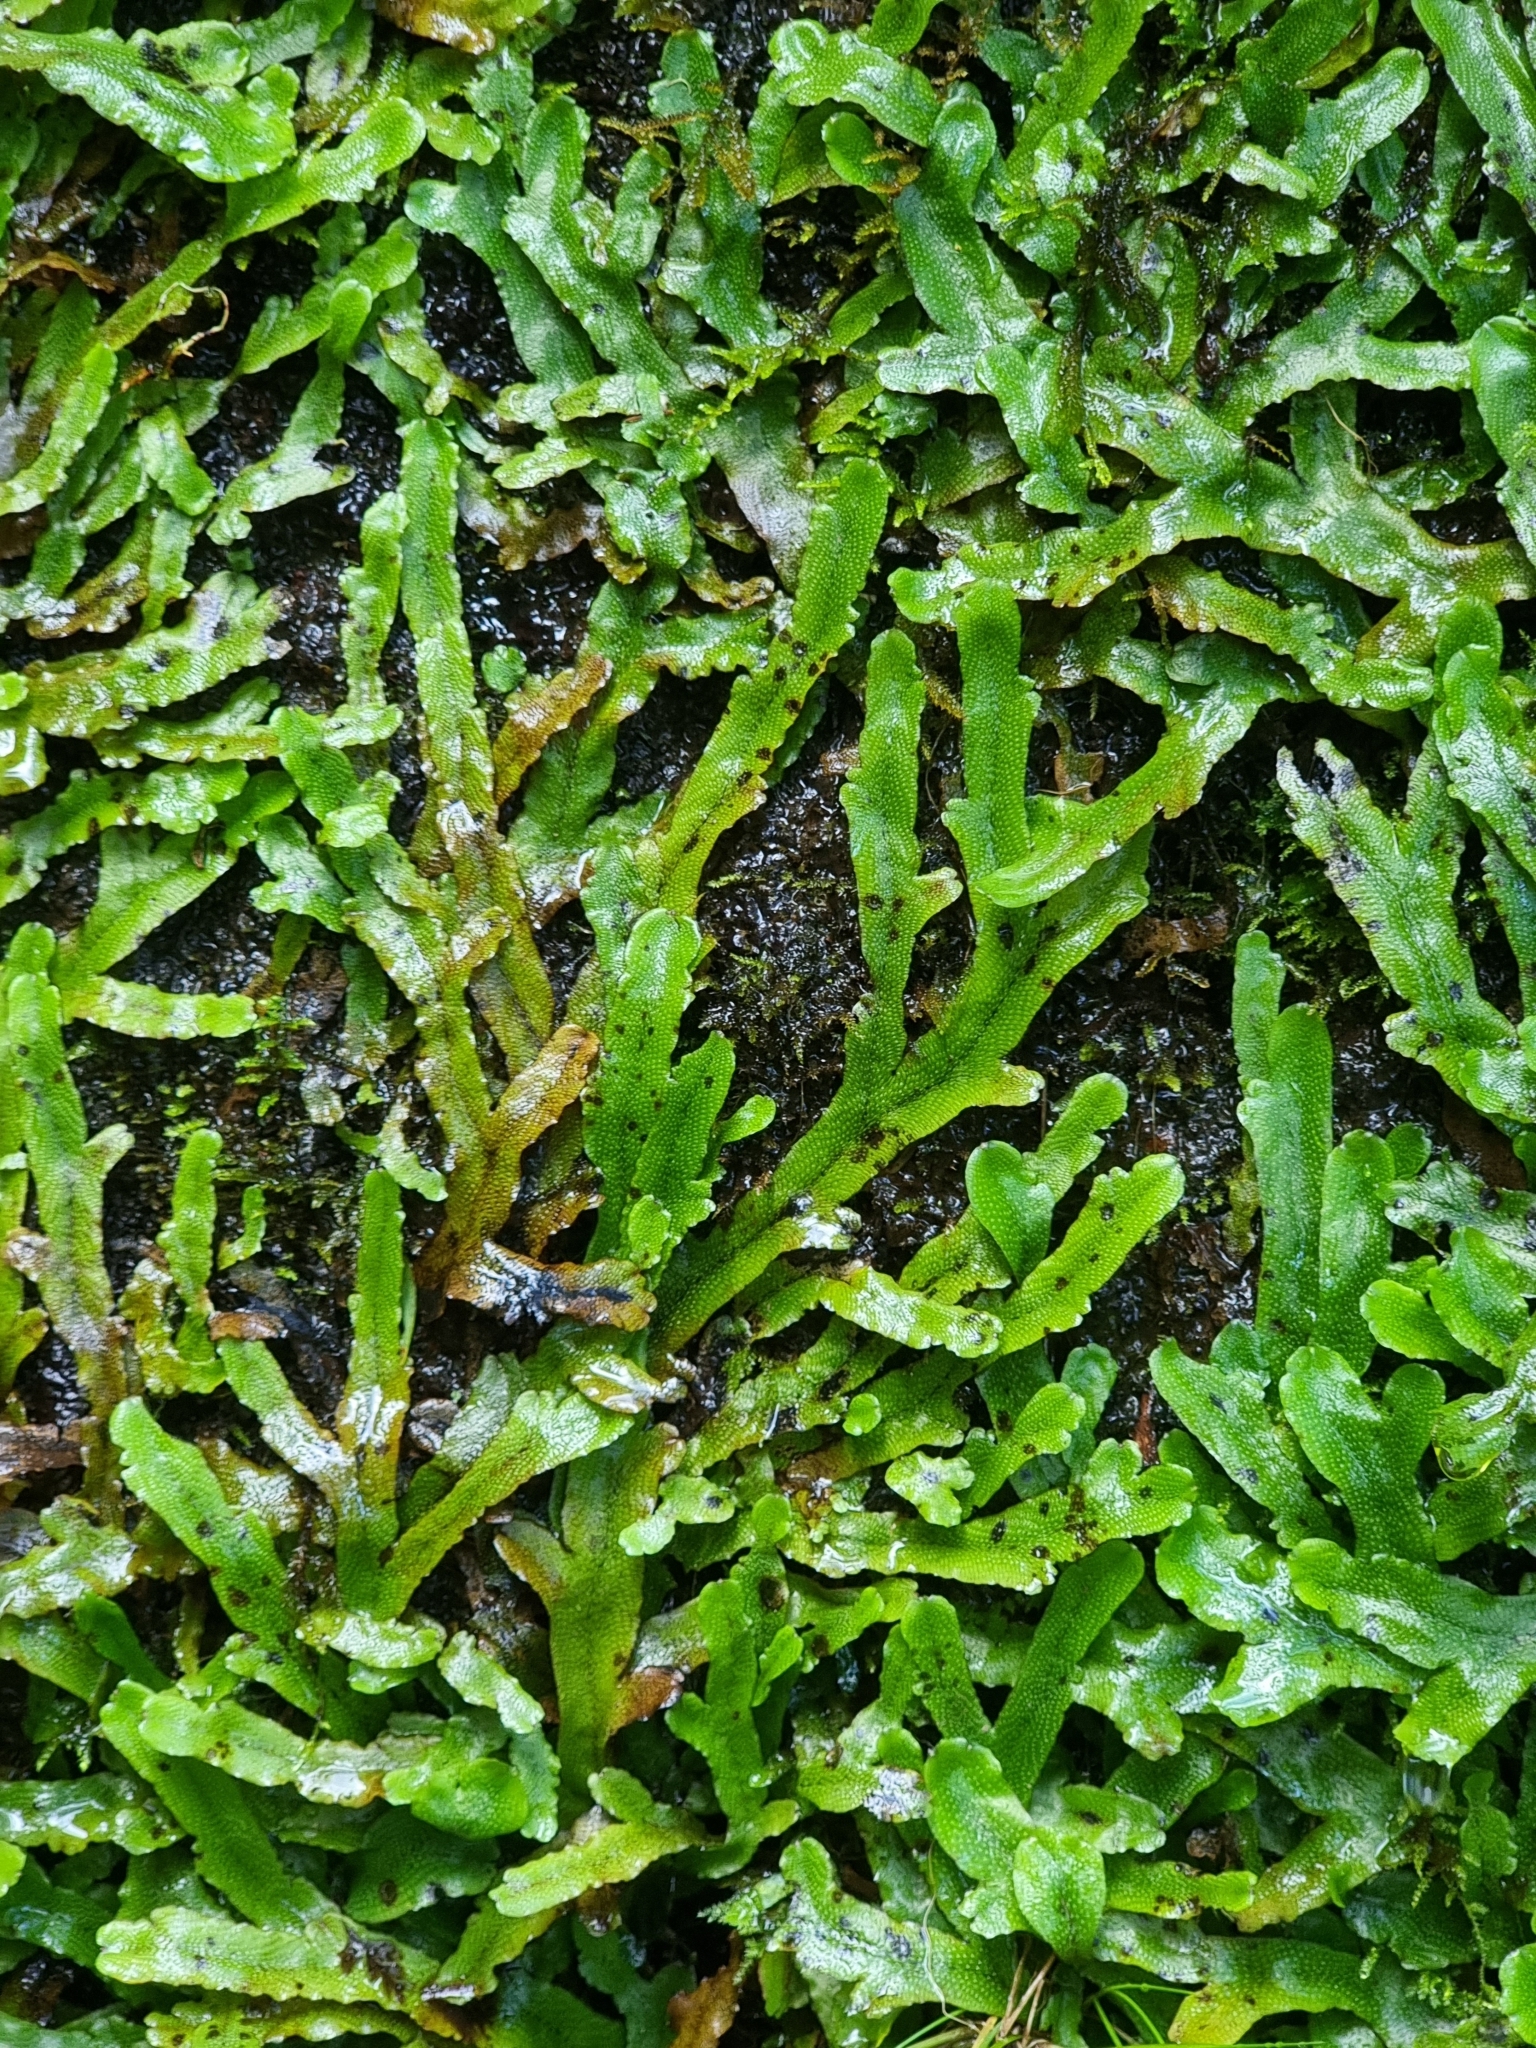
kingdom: Plantae
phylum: Marchantiophyta
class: Marchantiopsida
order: Marchantiales
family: Conocephalaceae
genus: Conocephalum
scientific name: Conocephalum conicum
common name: Great scented liverwort
